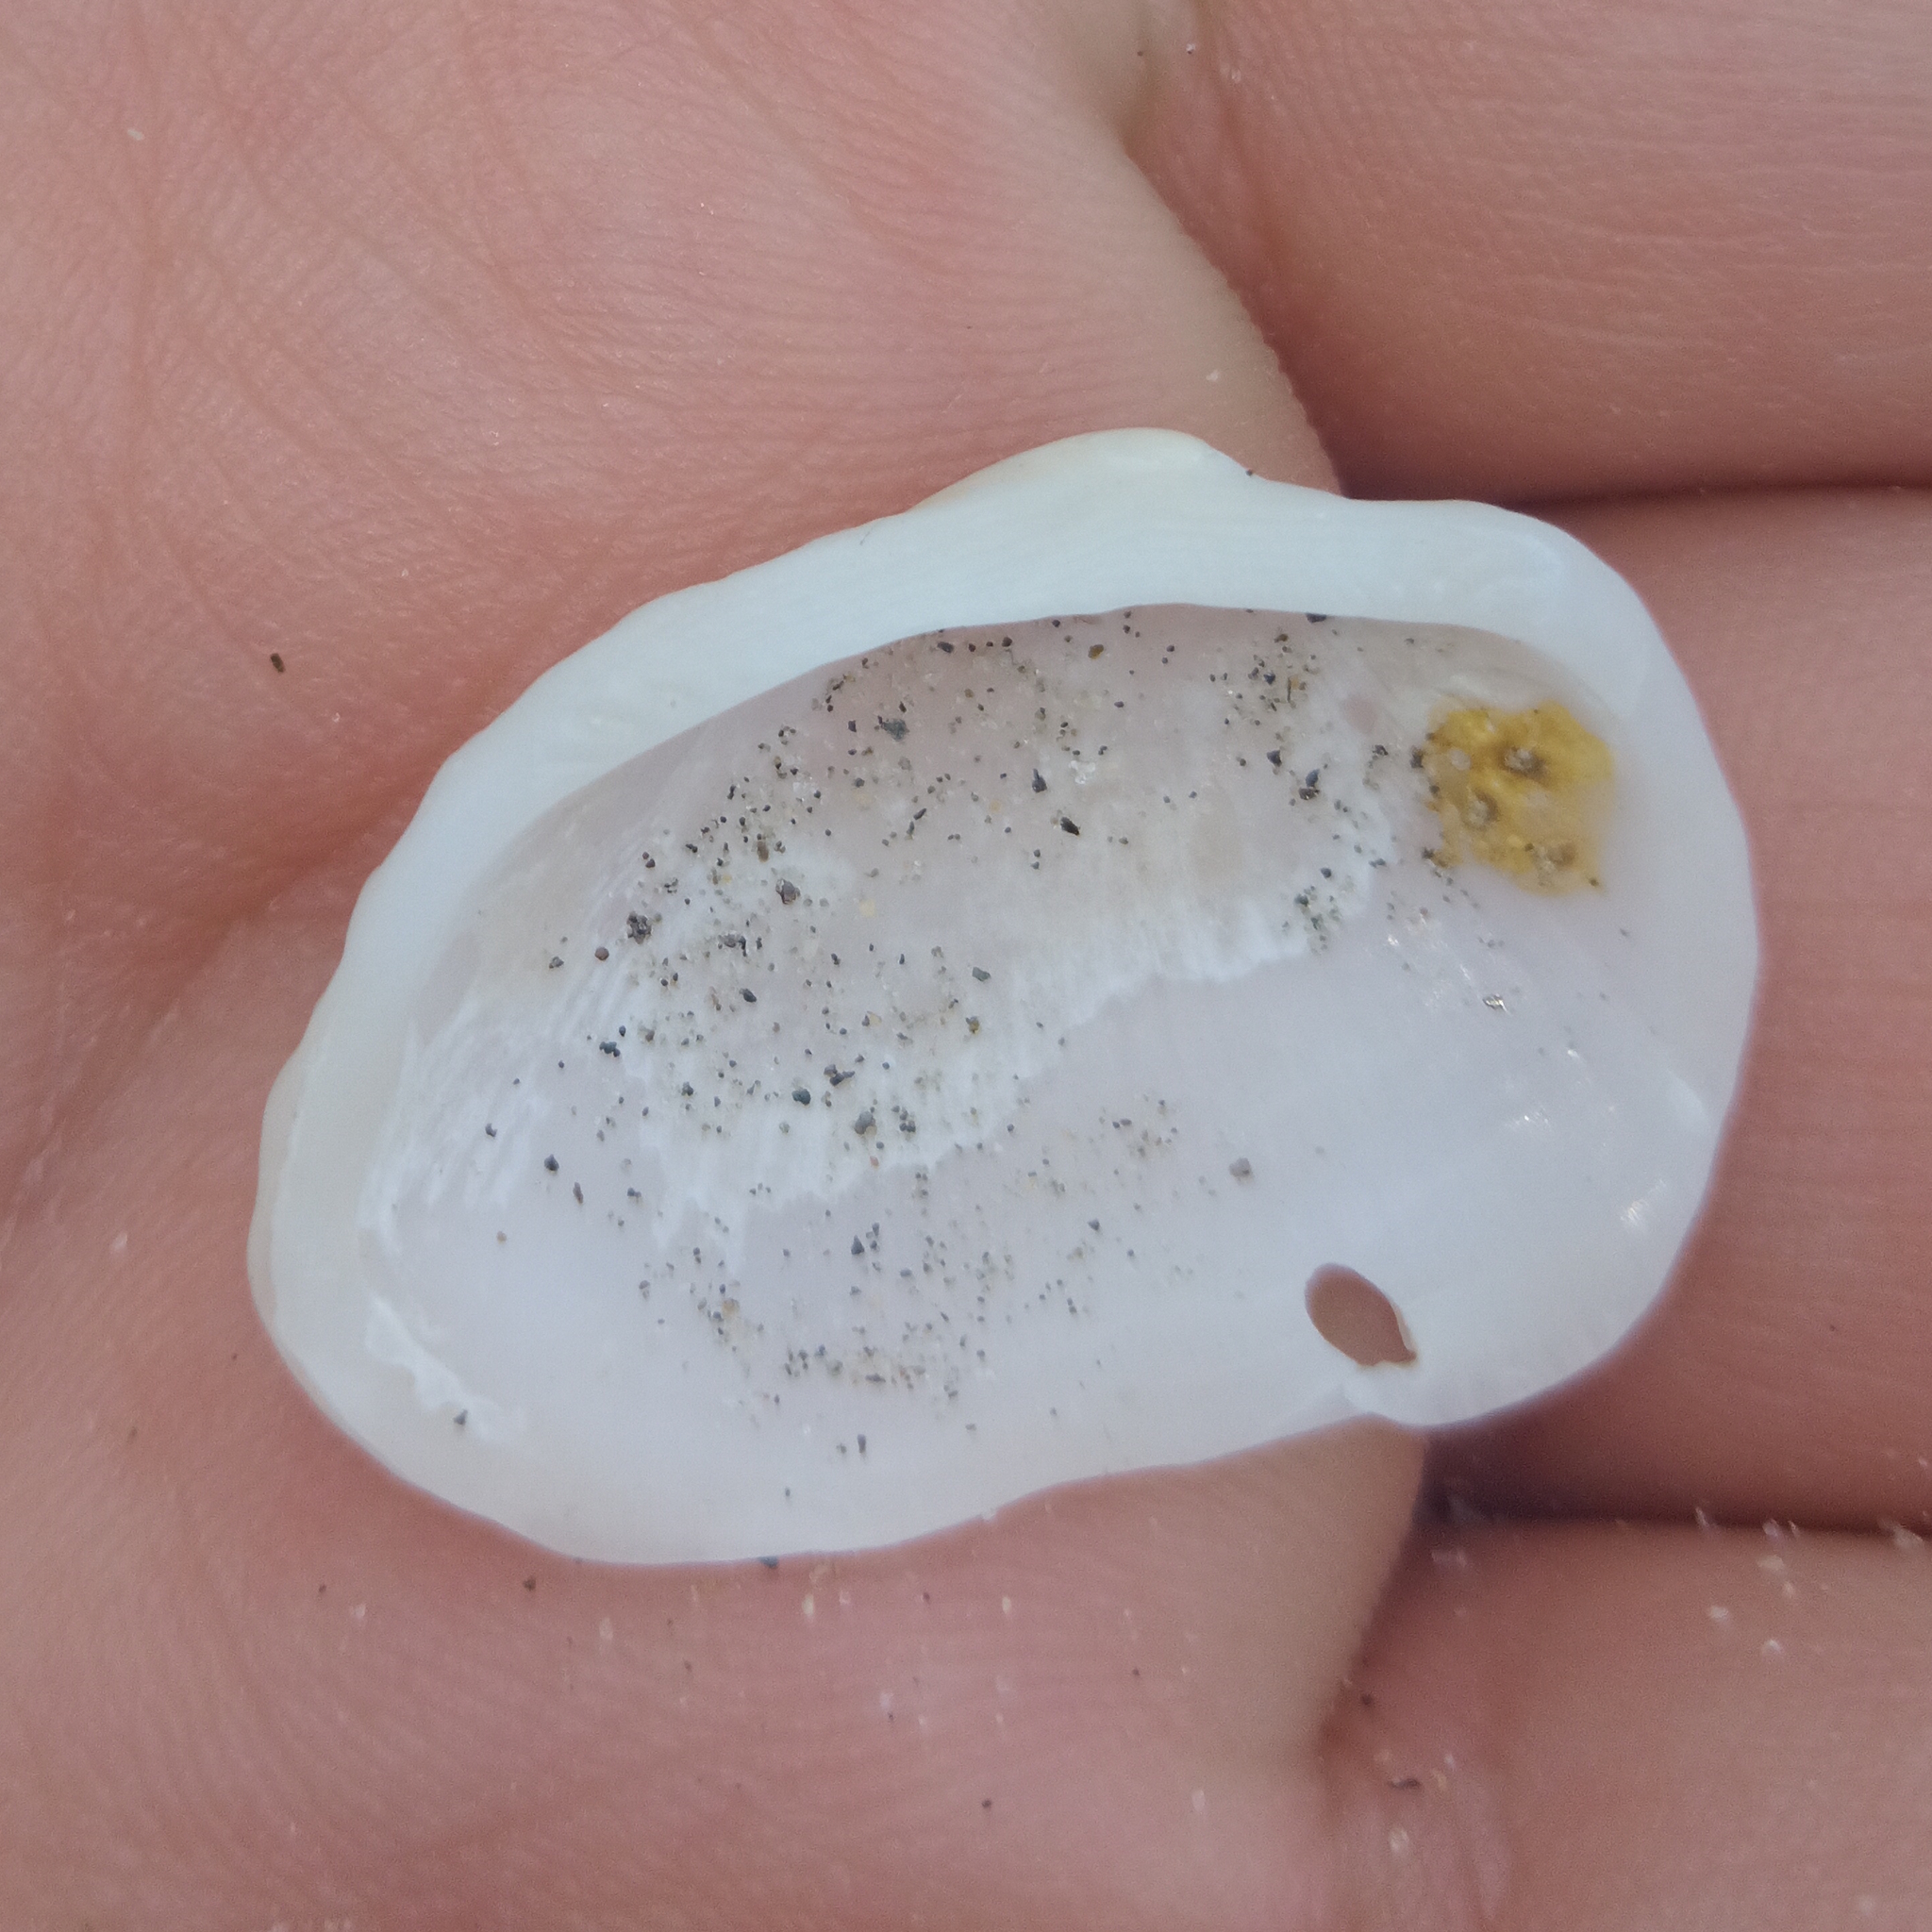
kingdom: Animalia
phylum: Mollusca
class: Bivalvia
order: Arcida
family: Arcidae
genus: Barbatia
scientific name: Barbatia candida
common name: White-beard ark
